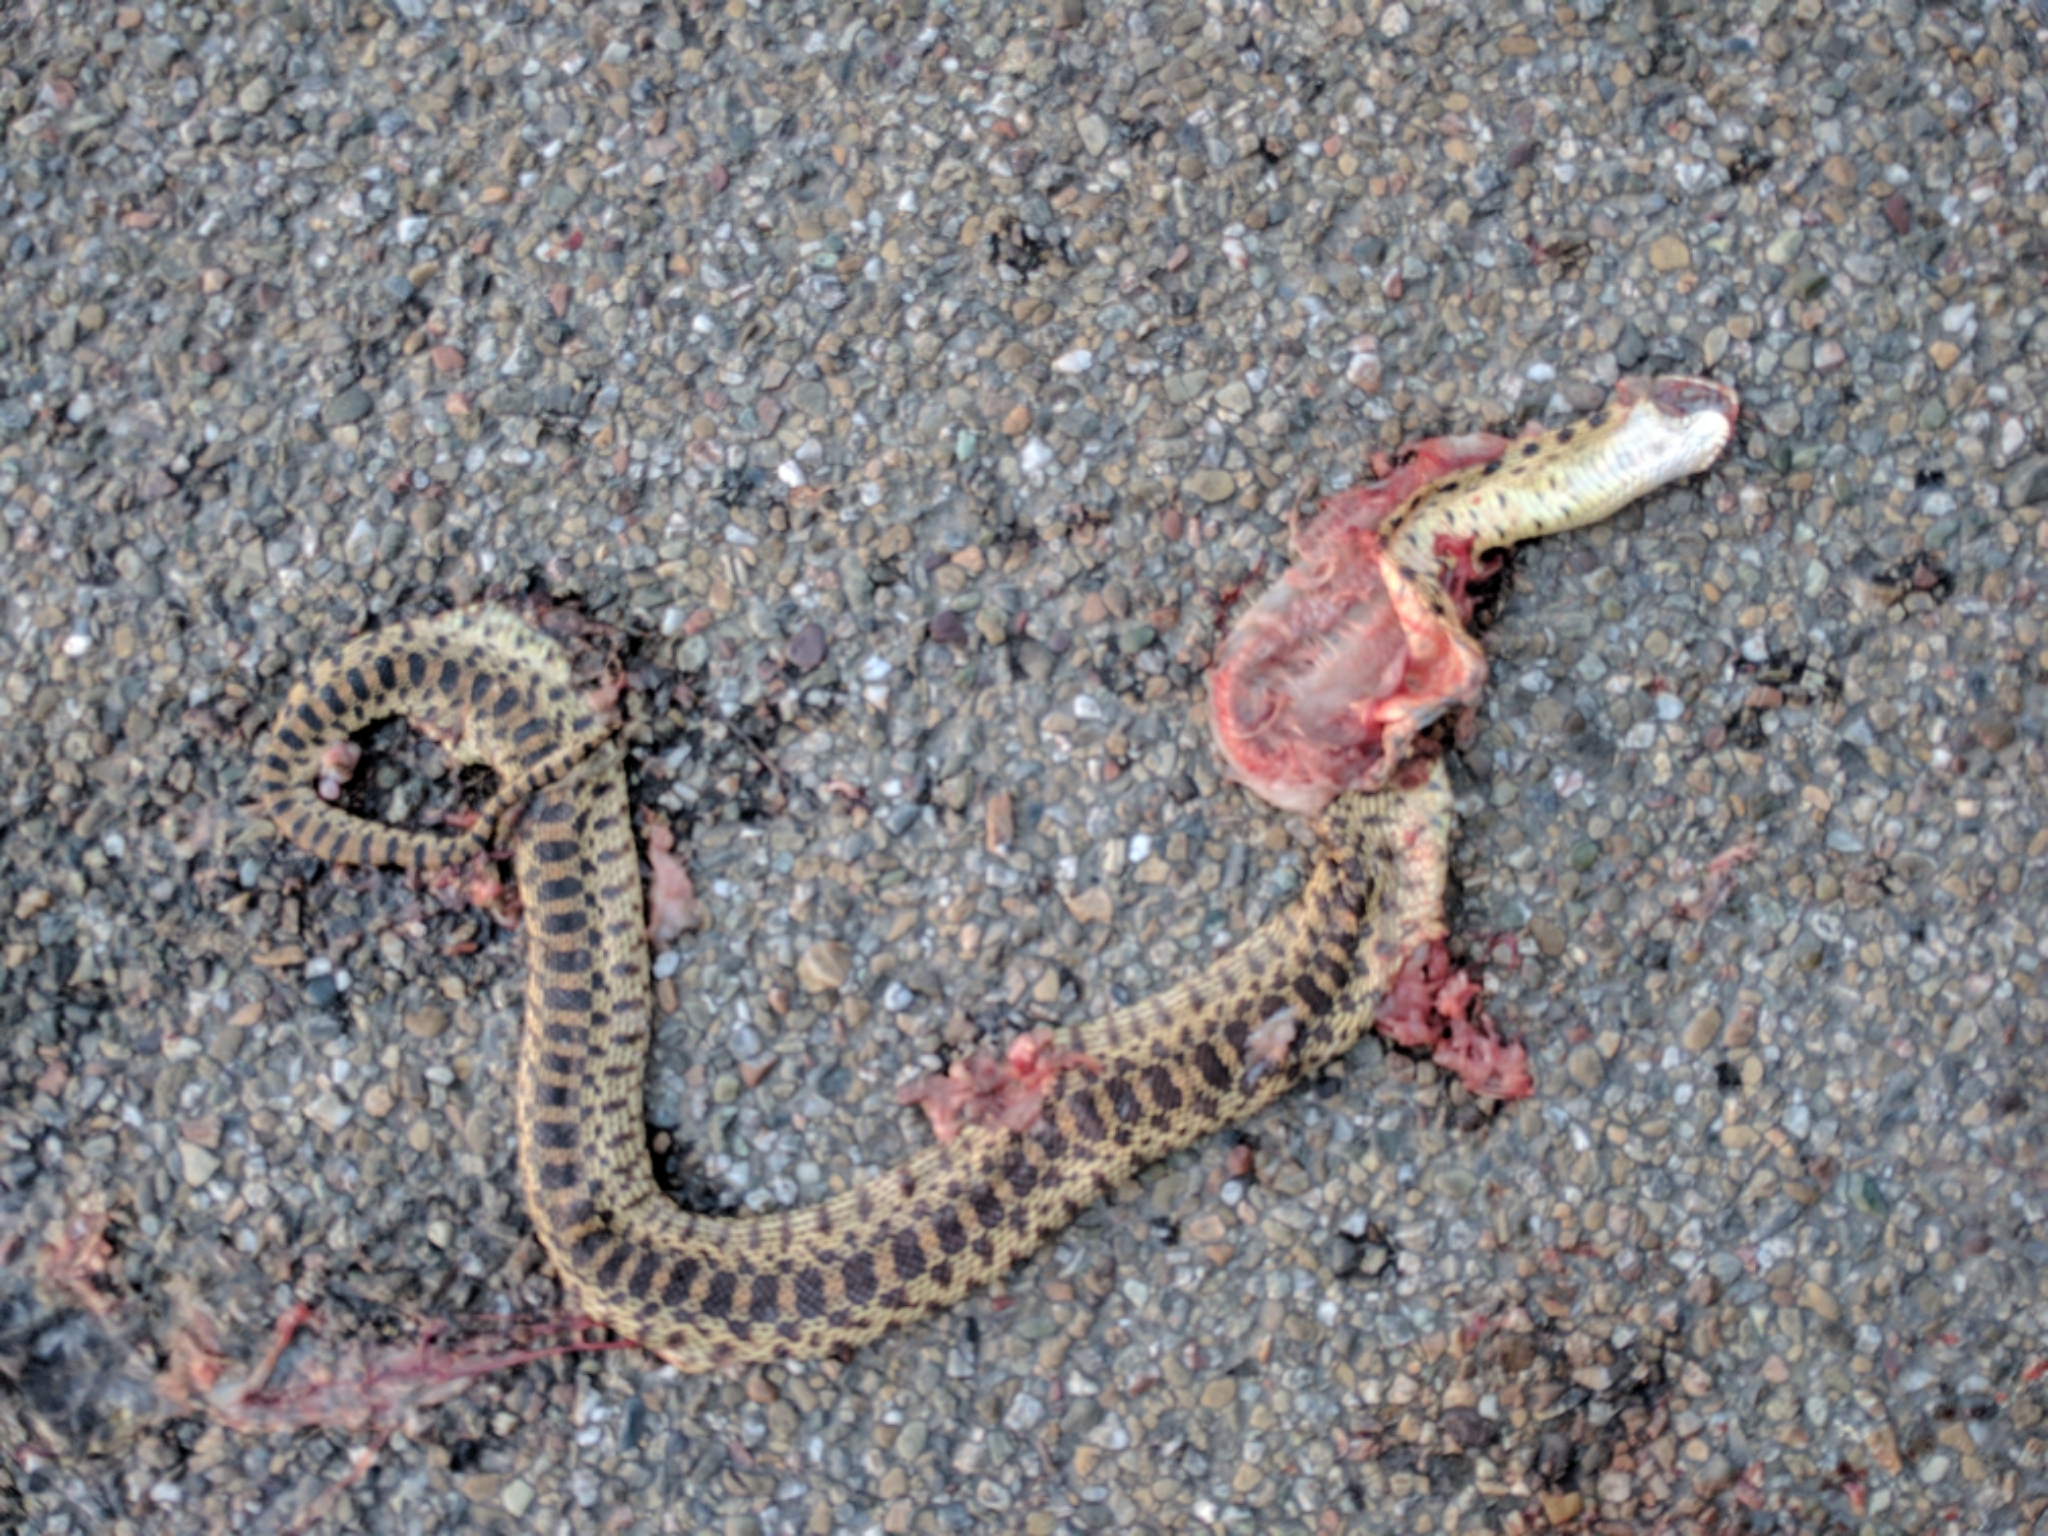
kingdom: Animalia
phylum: Chordata
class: Squamata
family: Colubridae
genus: Pituophis
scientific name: Pituophis catenifer
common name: Gopher snake
